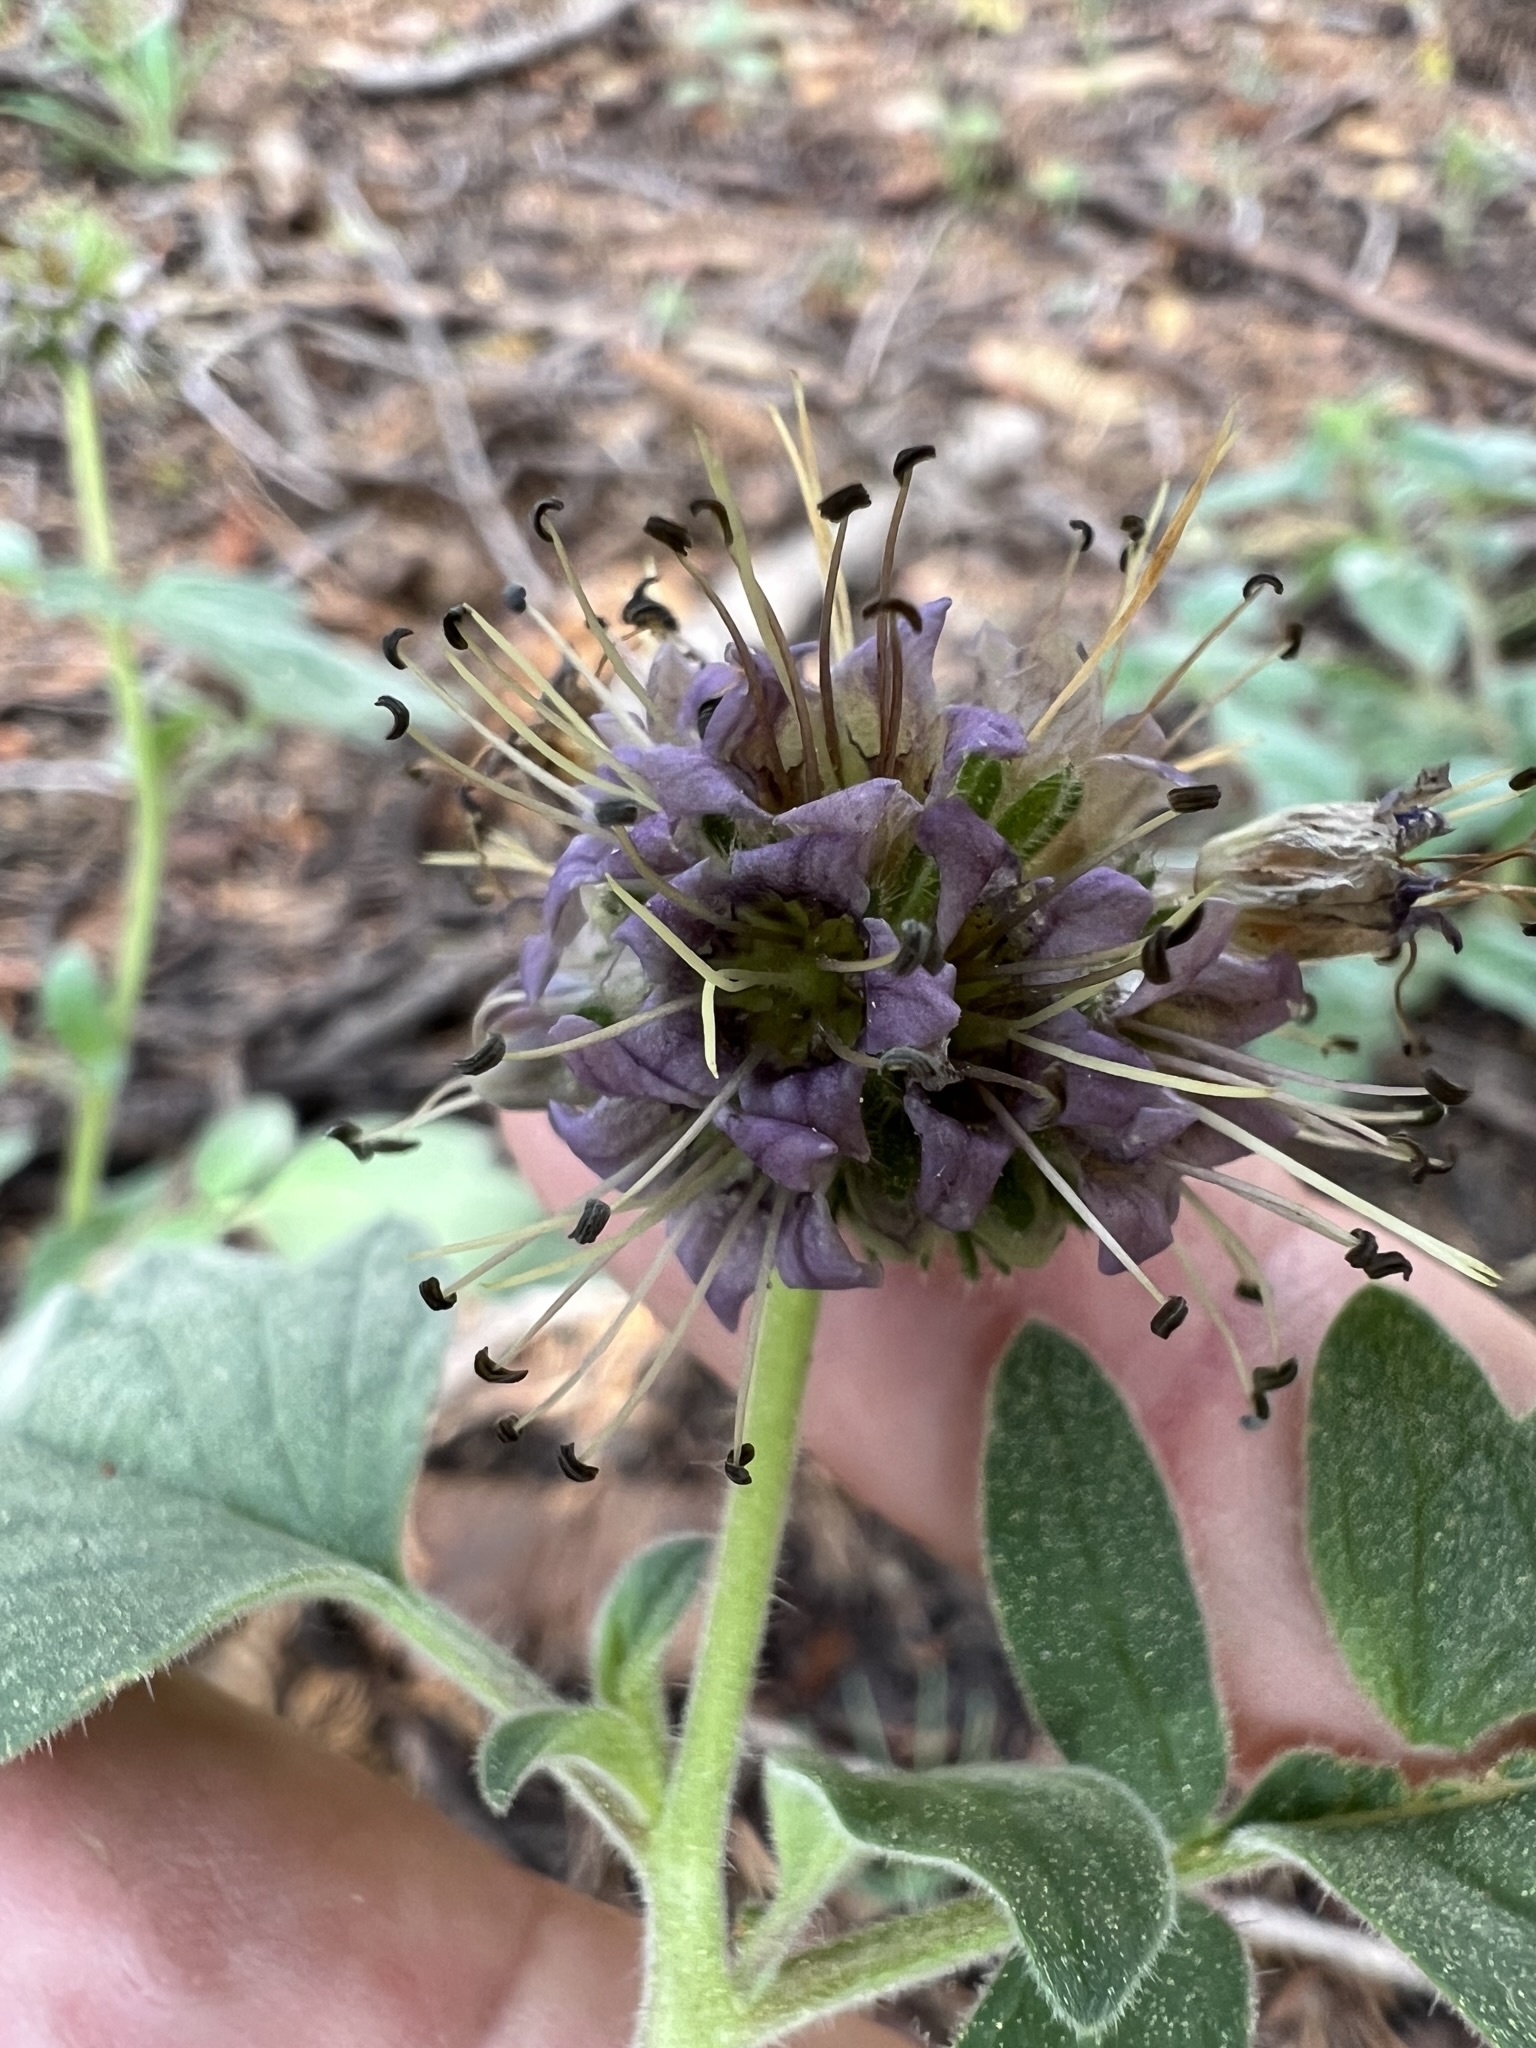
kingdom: Plantae
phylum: Tracheophyta
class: Magnoliopsida
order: Boraginales
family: Hydrophyllaceae
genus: Phacelia
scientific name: Phacelia hydrophylloides
